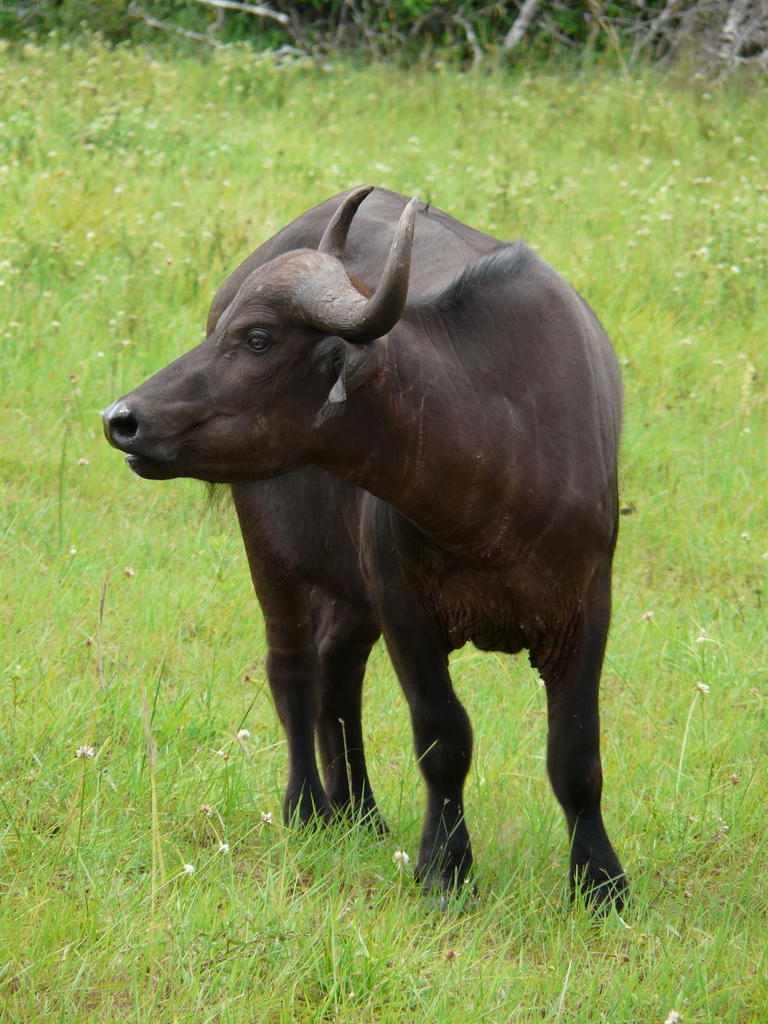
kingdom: Animalia
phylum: Chordata
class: Mammalia
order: Artiodactyla
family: Bovidae
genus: Syncerus
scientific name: Syncerus caffer
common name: African buffalo
